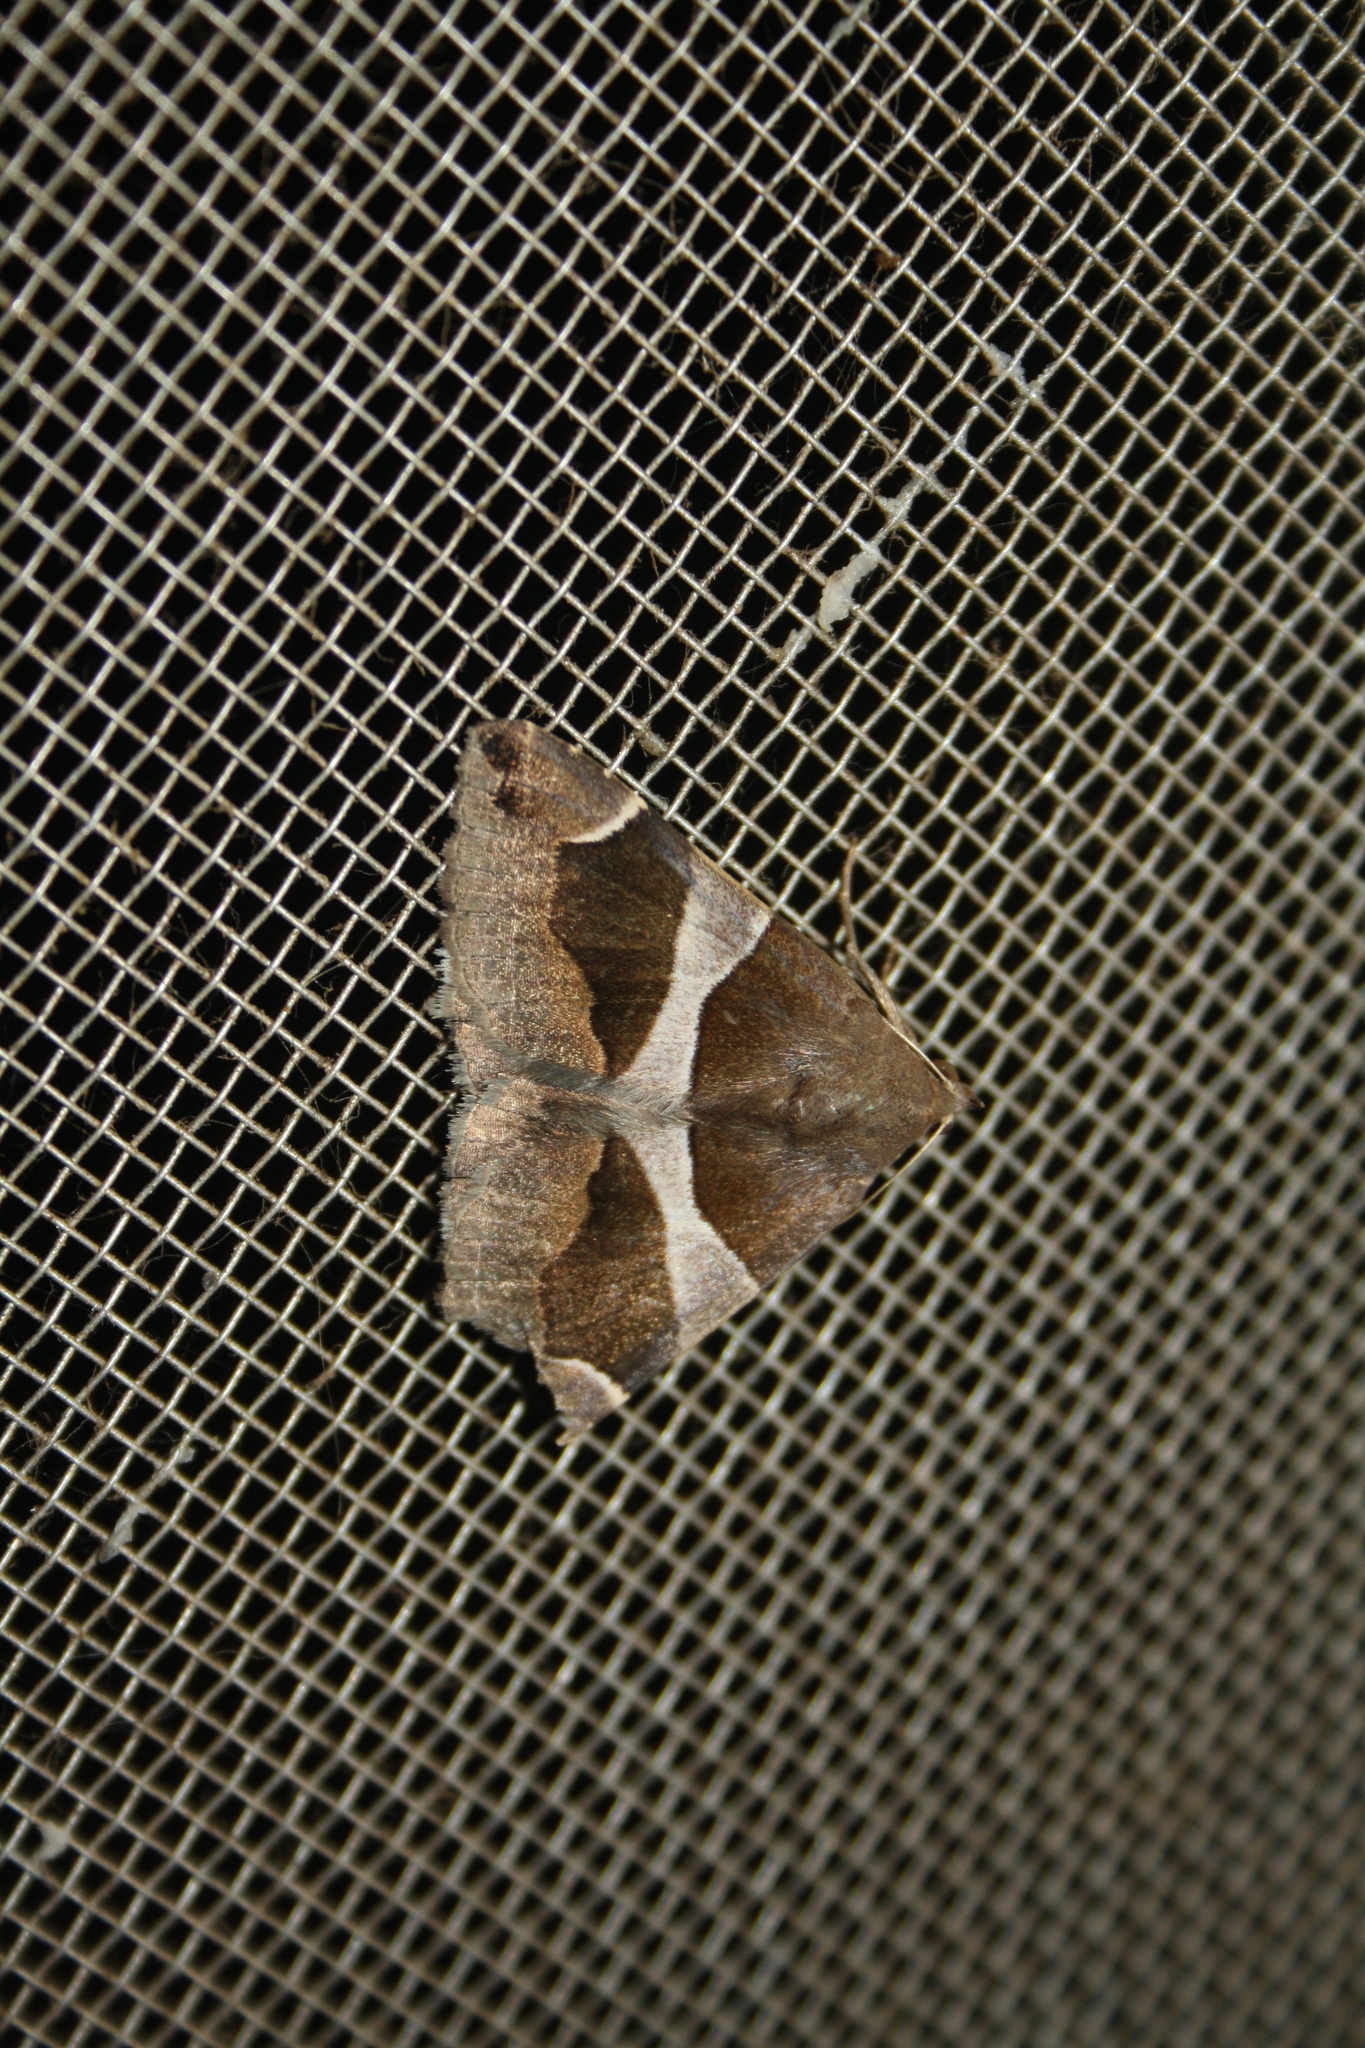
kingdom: Animalia
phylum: Arthropoda
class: Insecta
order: Lepidoptera
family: Erebidae
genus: Dysgonia
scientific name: Dysgonia algira
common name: Passenger
